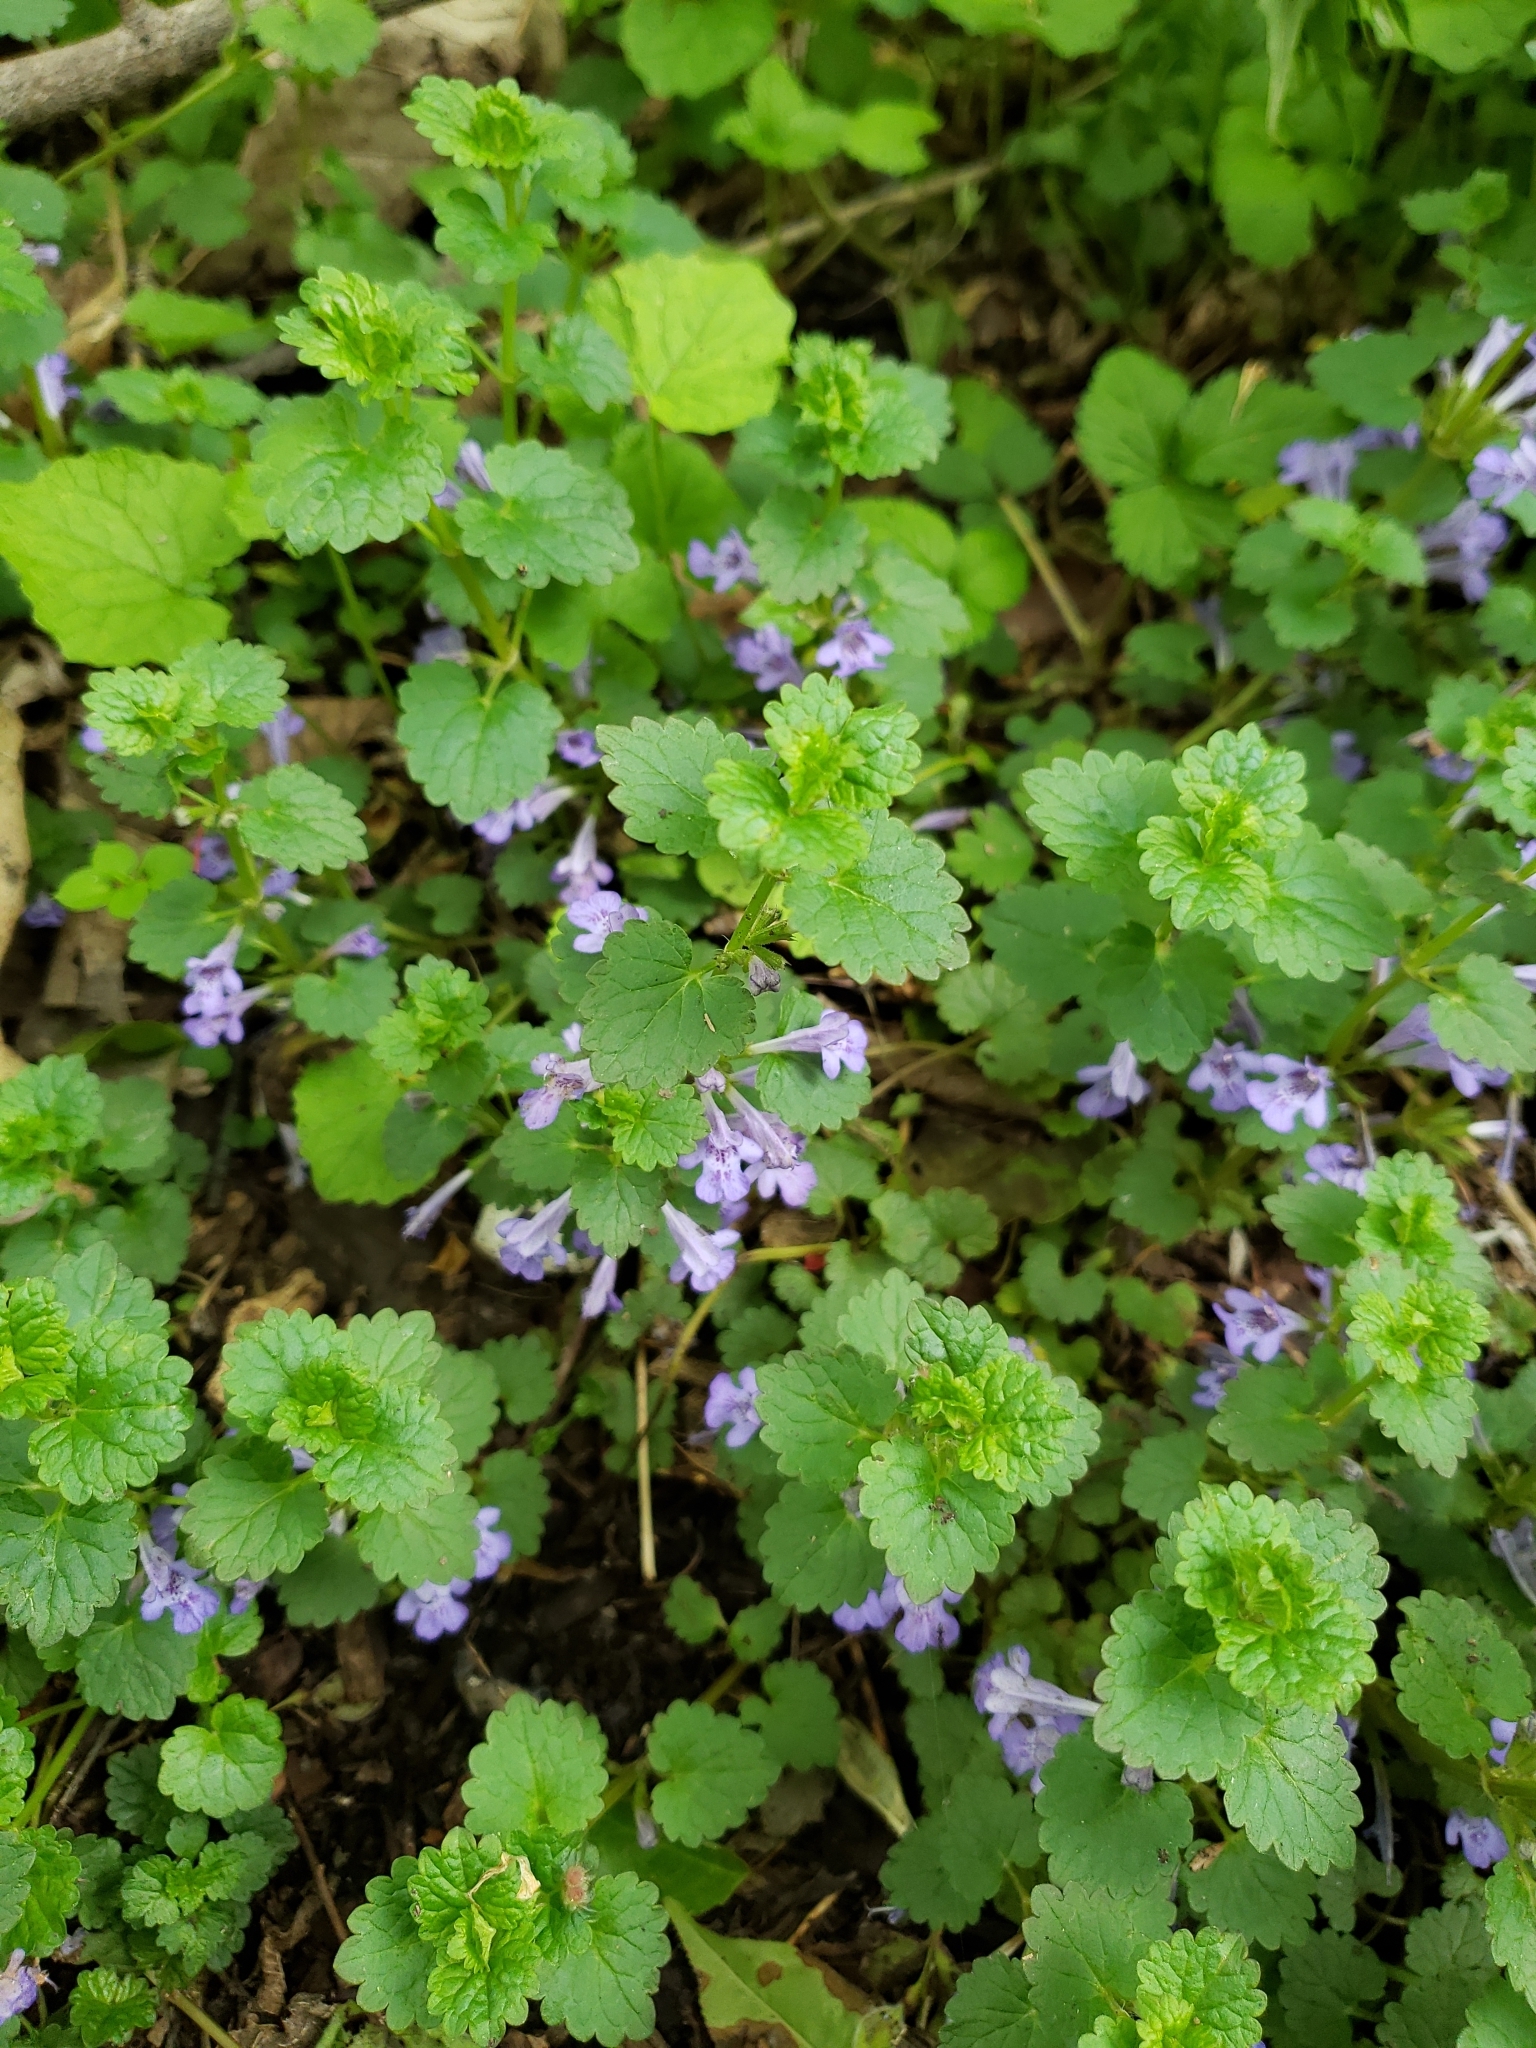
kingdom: Plantae
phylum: Tracheophyta
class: Magnoliopsida
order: Lamiales
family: Lamiaceae
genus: Glechoma
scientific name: Glechoma hederacea
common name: Ground ivy
